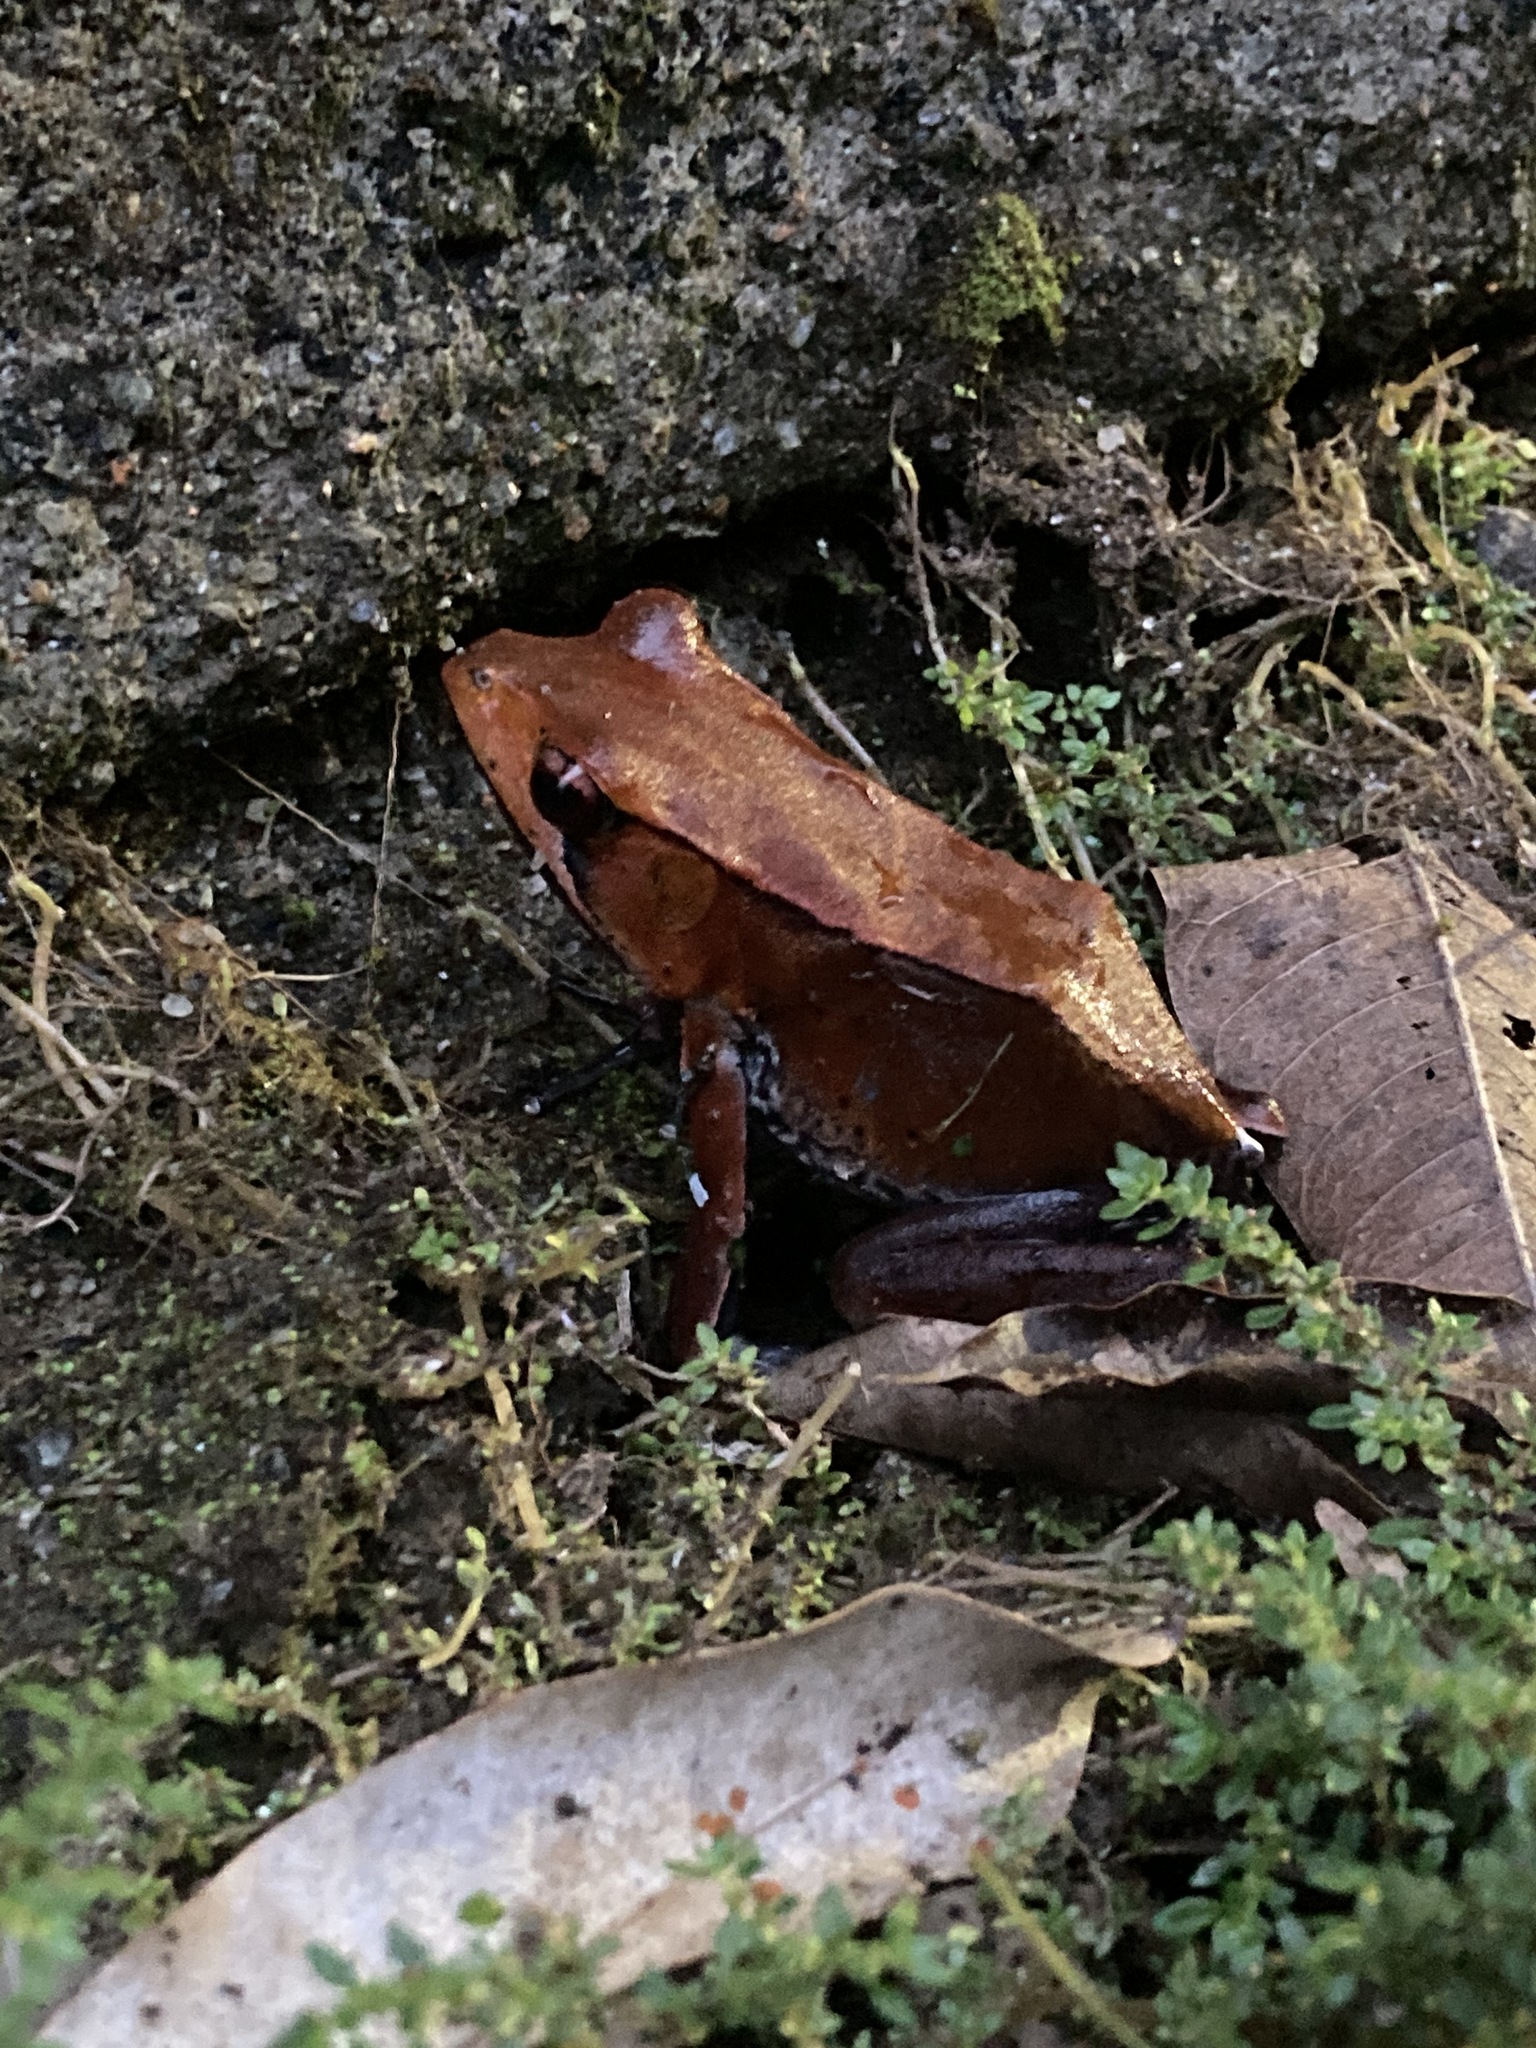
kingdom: Animalia
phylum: Chordata
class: Amphibia
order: Anura
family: Ranidae
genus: Clinotarsus
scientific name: Clinotarsus curtipes
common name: Bicoloured frog
